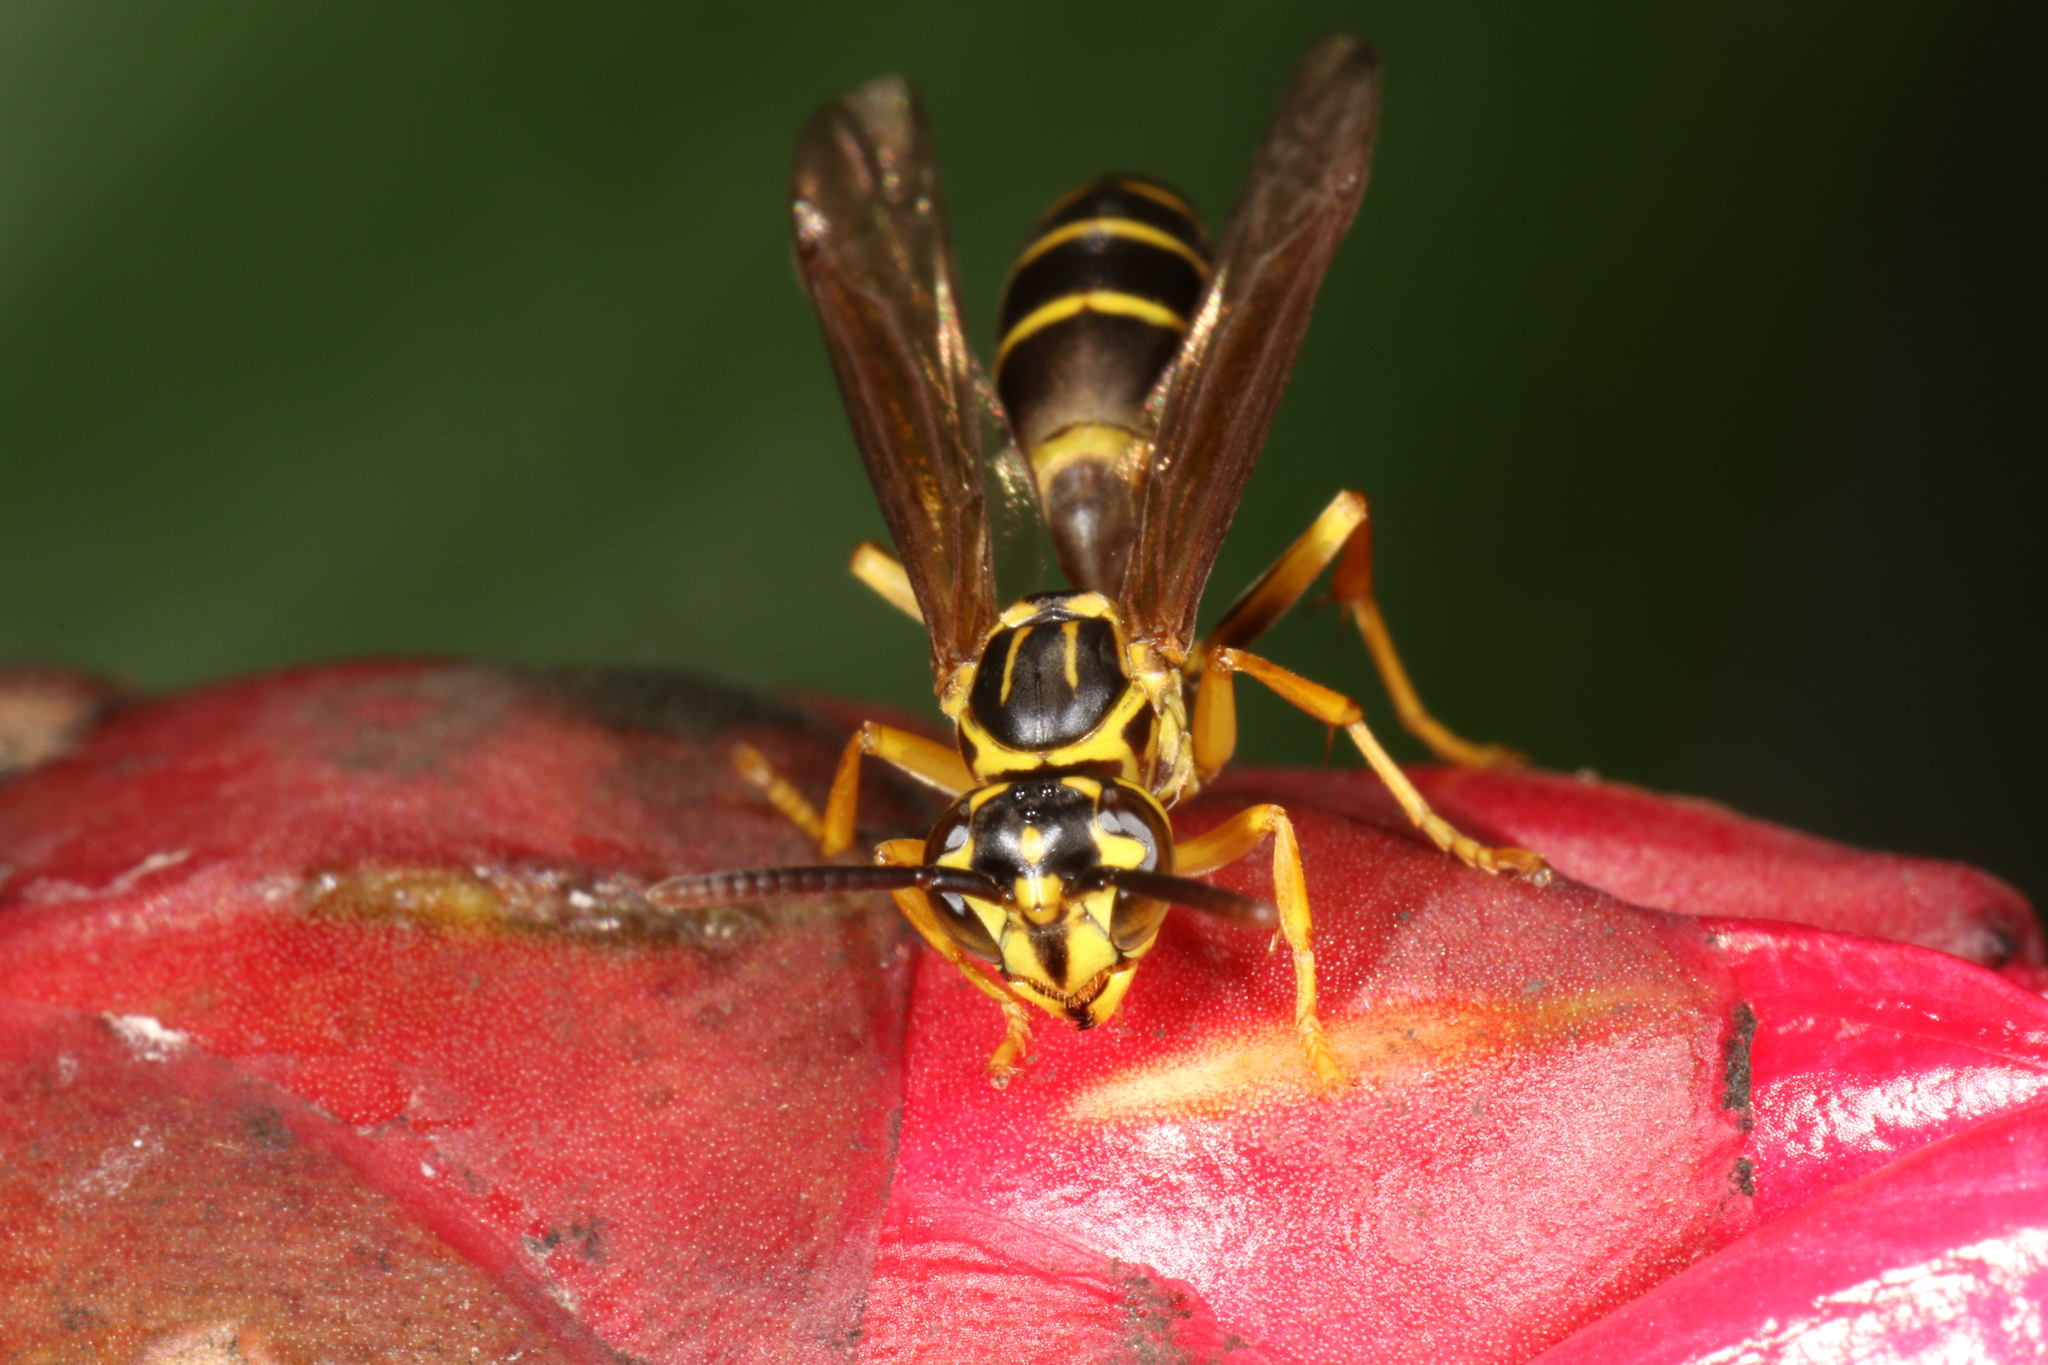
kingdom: Animalia
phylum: Arthropoda
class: Insecta
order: Hymenoptera
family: Vespidae
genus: Agelaia
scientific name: Agelaia multipicta
